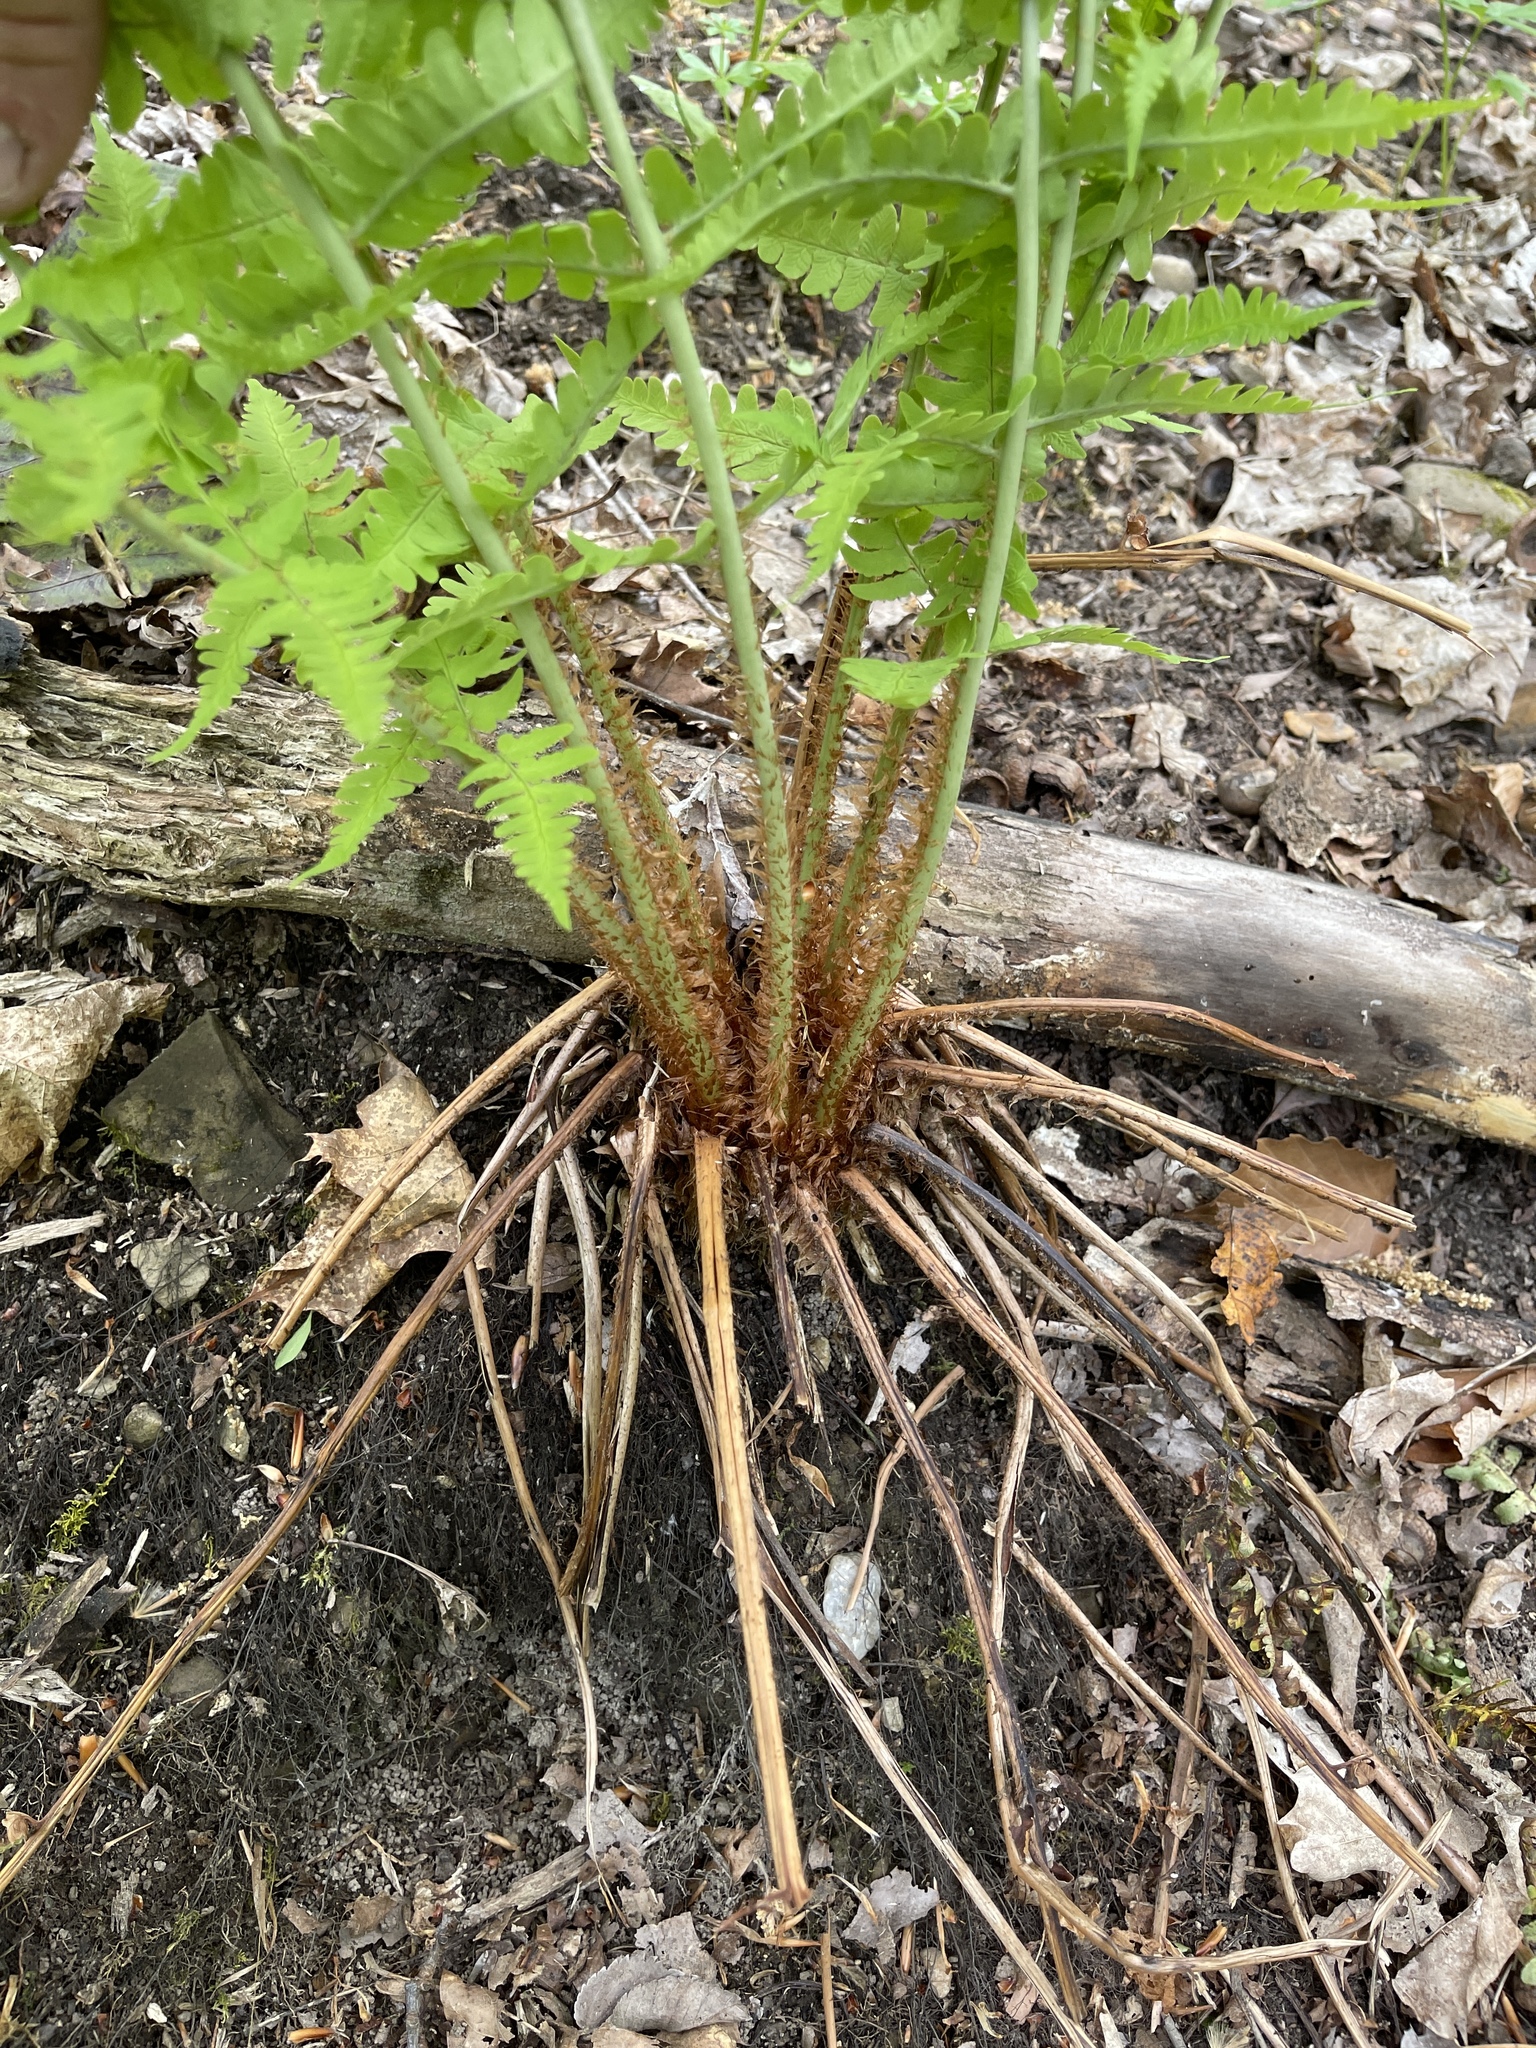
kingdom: Plantae
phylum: Tracheophyta
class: Polypodiopsida
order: Polypodiales
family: Dryopteridaceae
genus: Dryopteris
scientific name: Dryopteris marginalis
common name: Marginal wood fern
